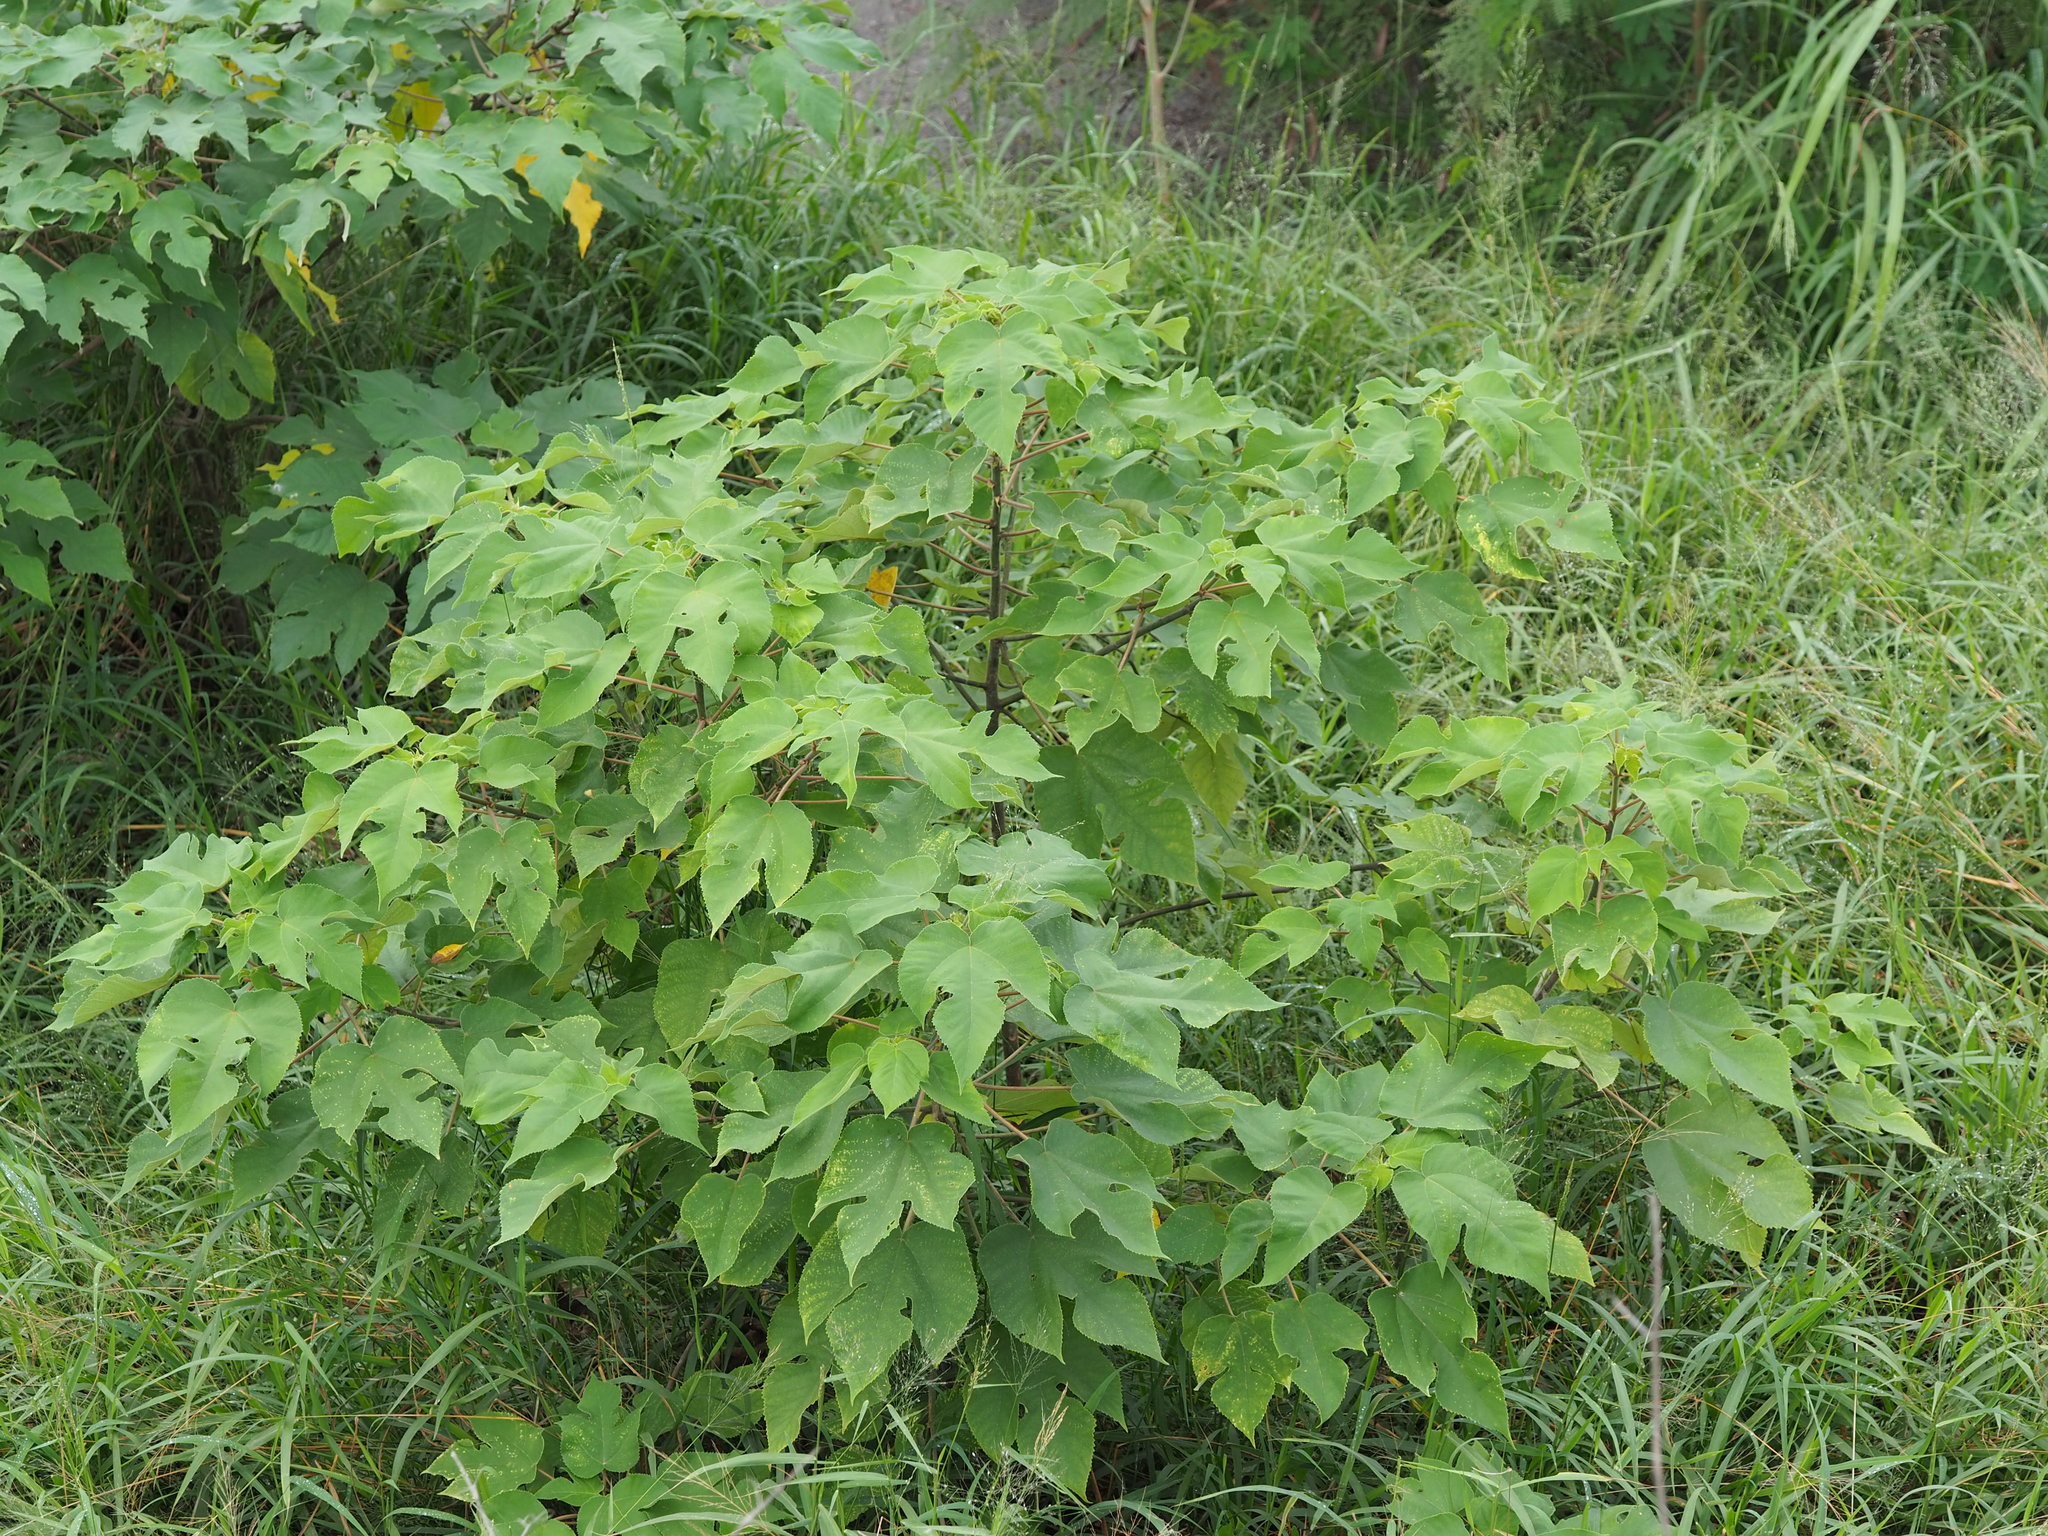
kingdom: Plantae
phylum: Tracheophyta
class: Magnoliopsida
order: Rosales
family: Moraceae
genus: Broussonetia
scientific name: Broussonetia papyrifera
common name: Paper mulberry
